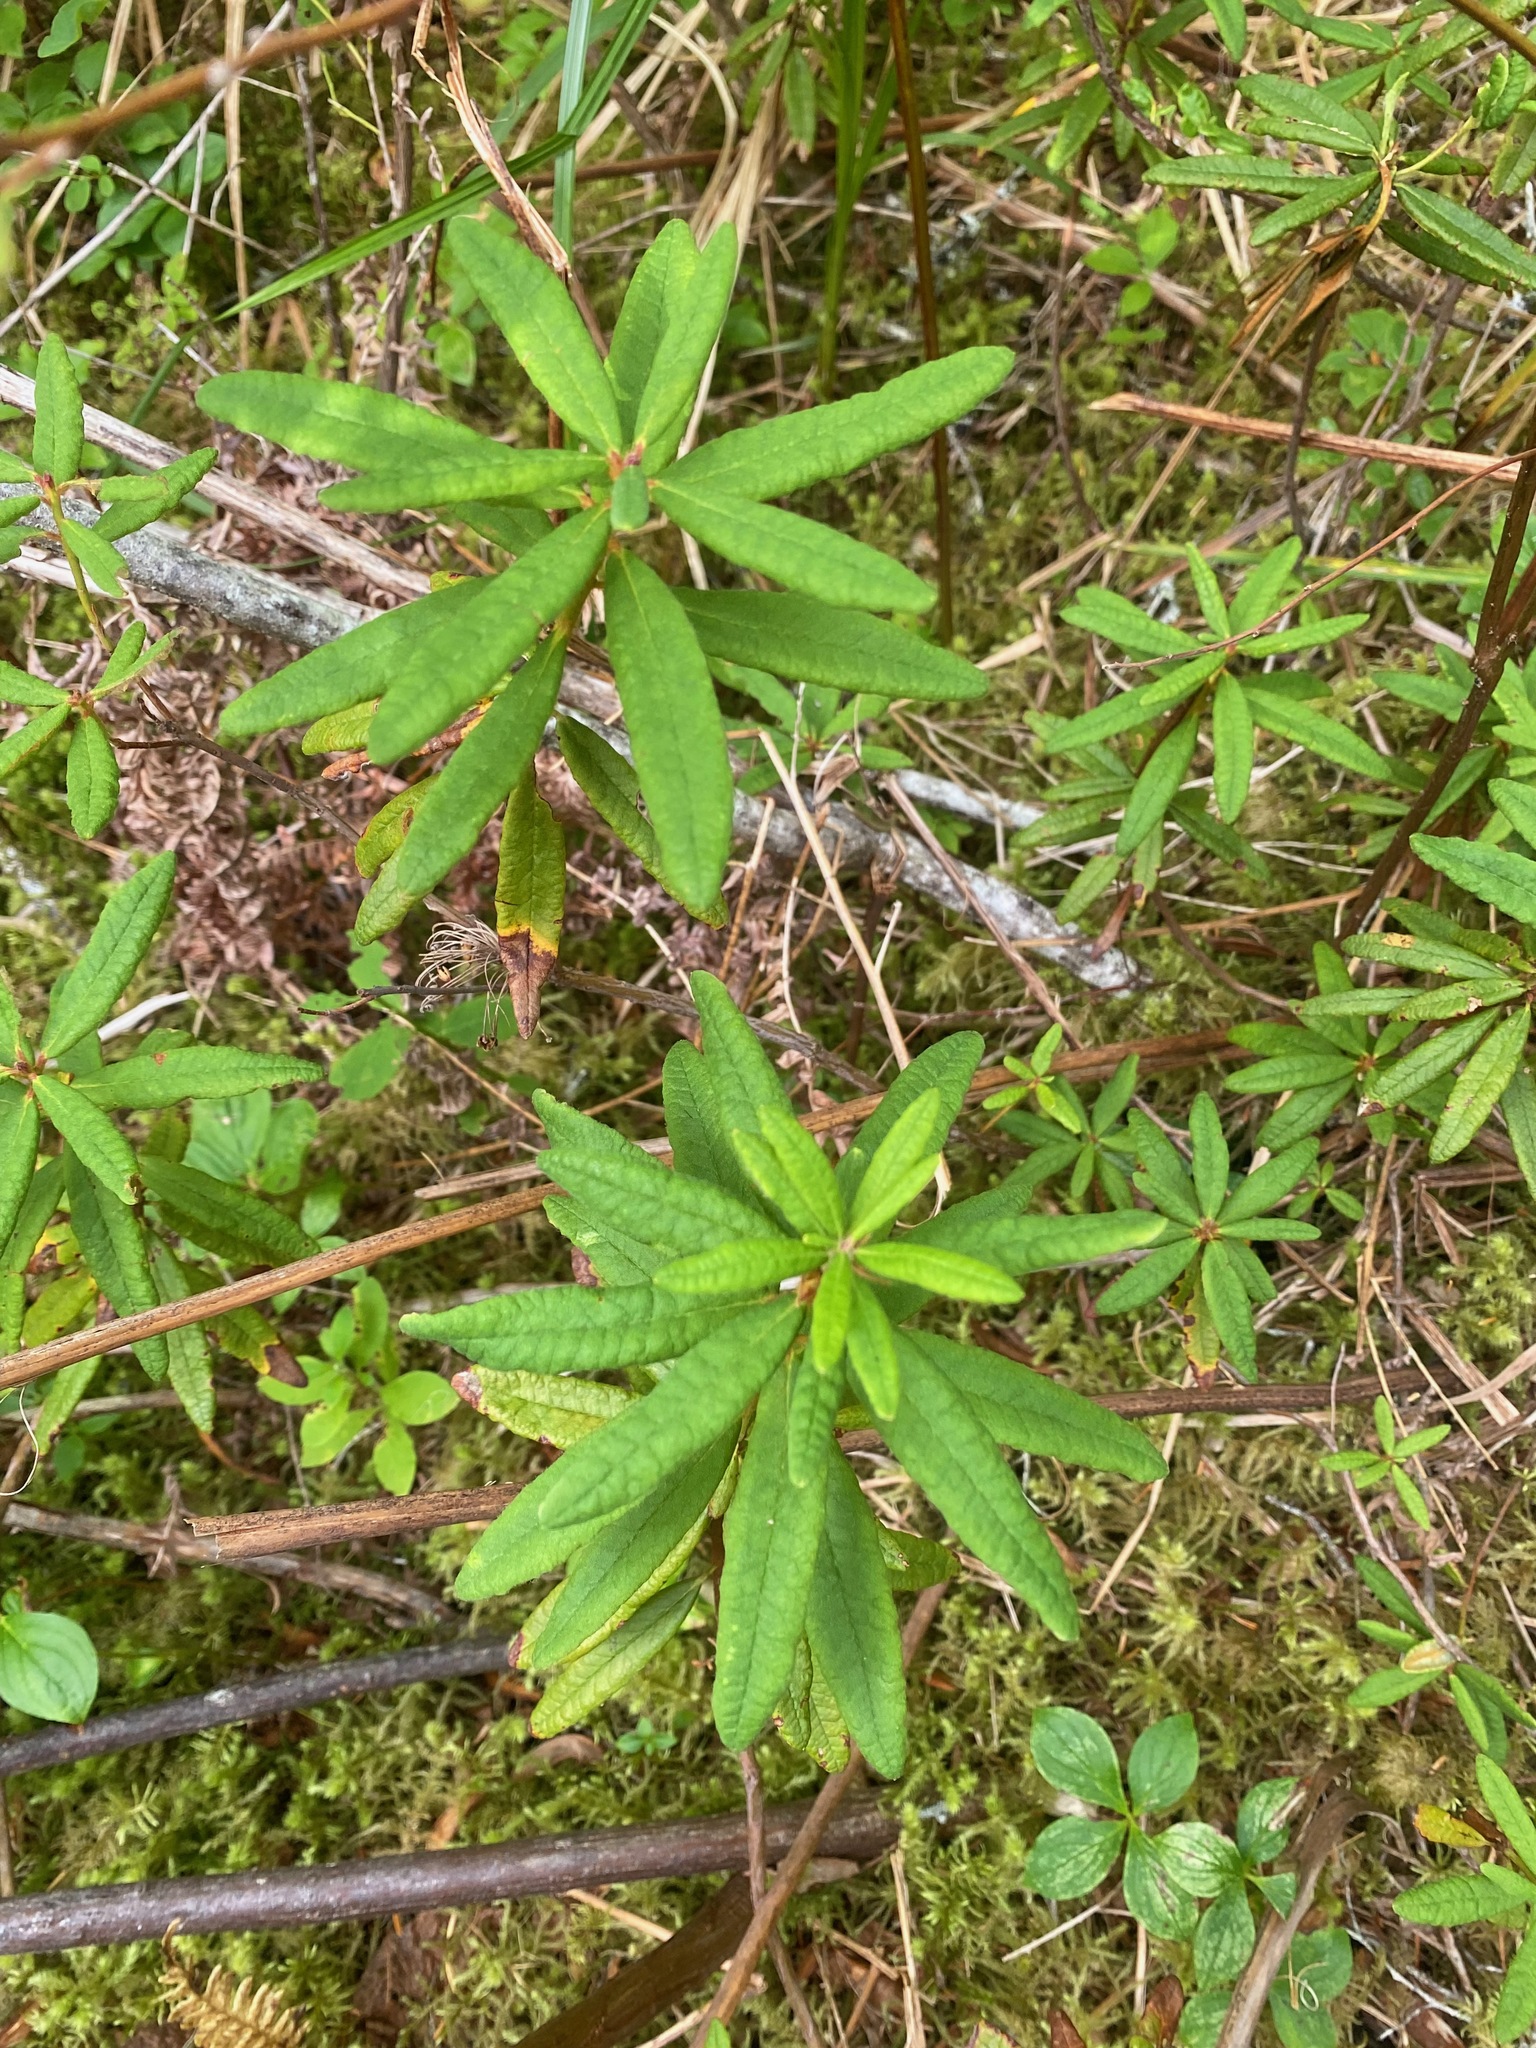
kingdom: Plantae
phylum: Tracheophyta
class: Magnoliopsida
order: Ericales
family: Ericaceae
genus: Rhododendron
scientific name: Rhododendron groenlandicum
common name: Bog labrador tea
